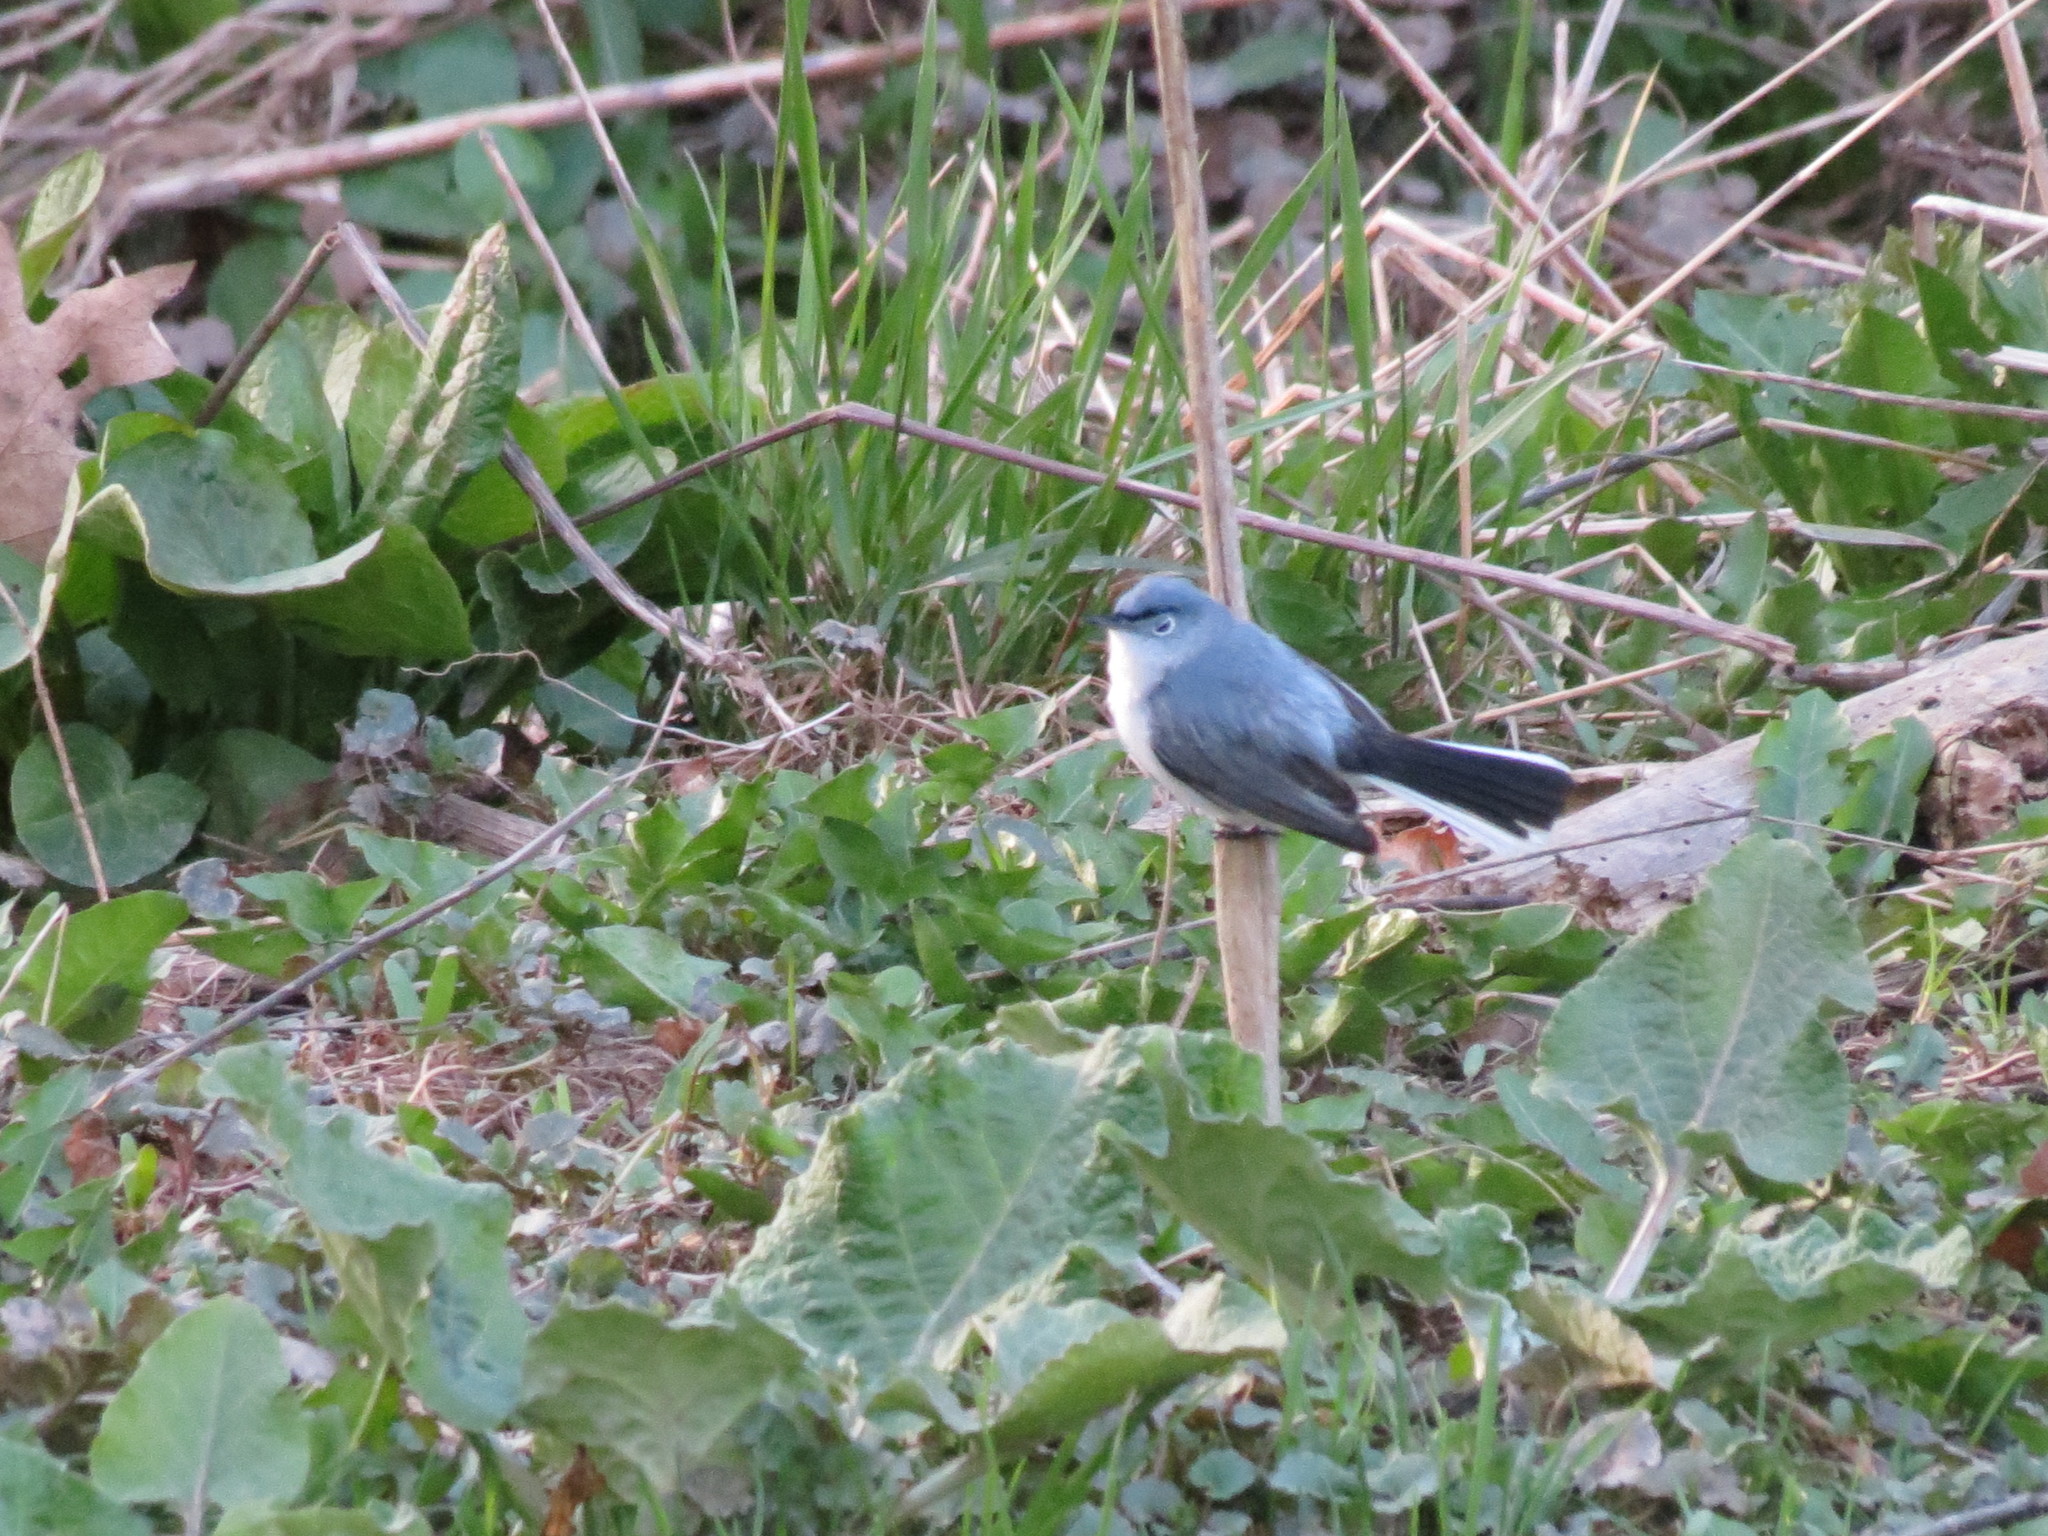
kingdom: Animalia
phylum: Chordata
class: Aves
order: Passeriformes
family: Polioptilidae
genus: Polioptila
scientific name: Polioptila caerulea
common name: Blue-gray gnatcatcher
